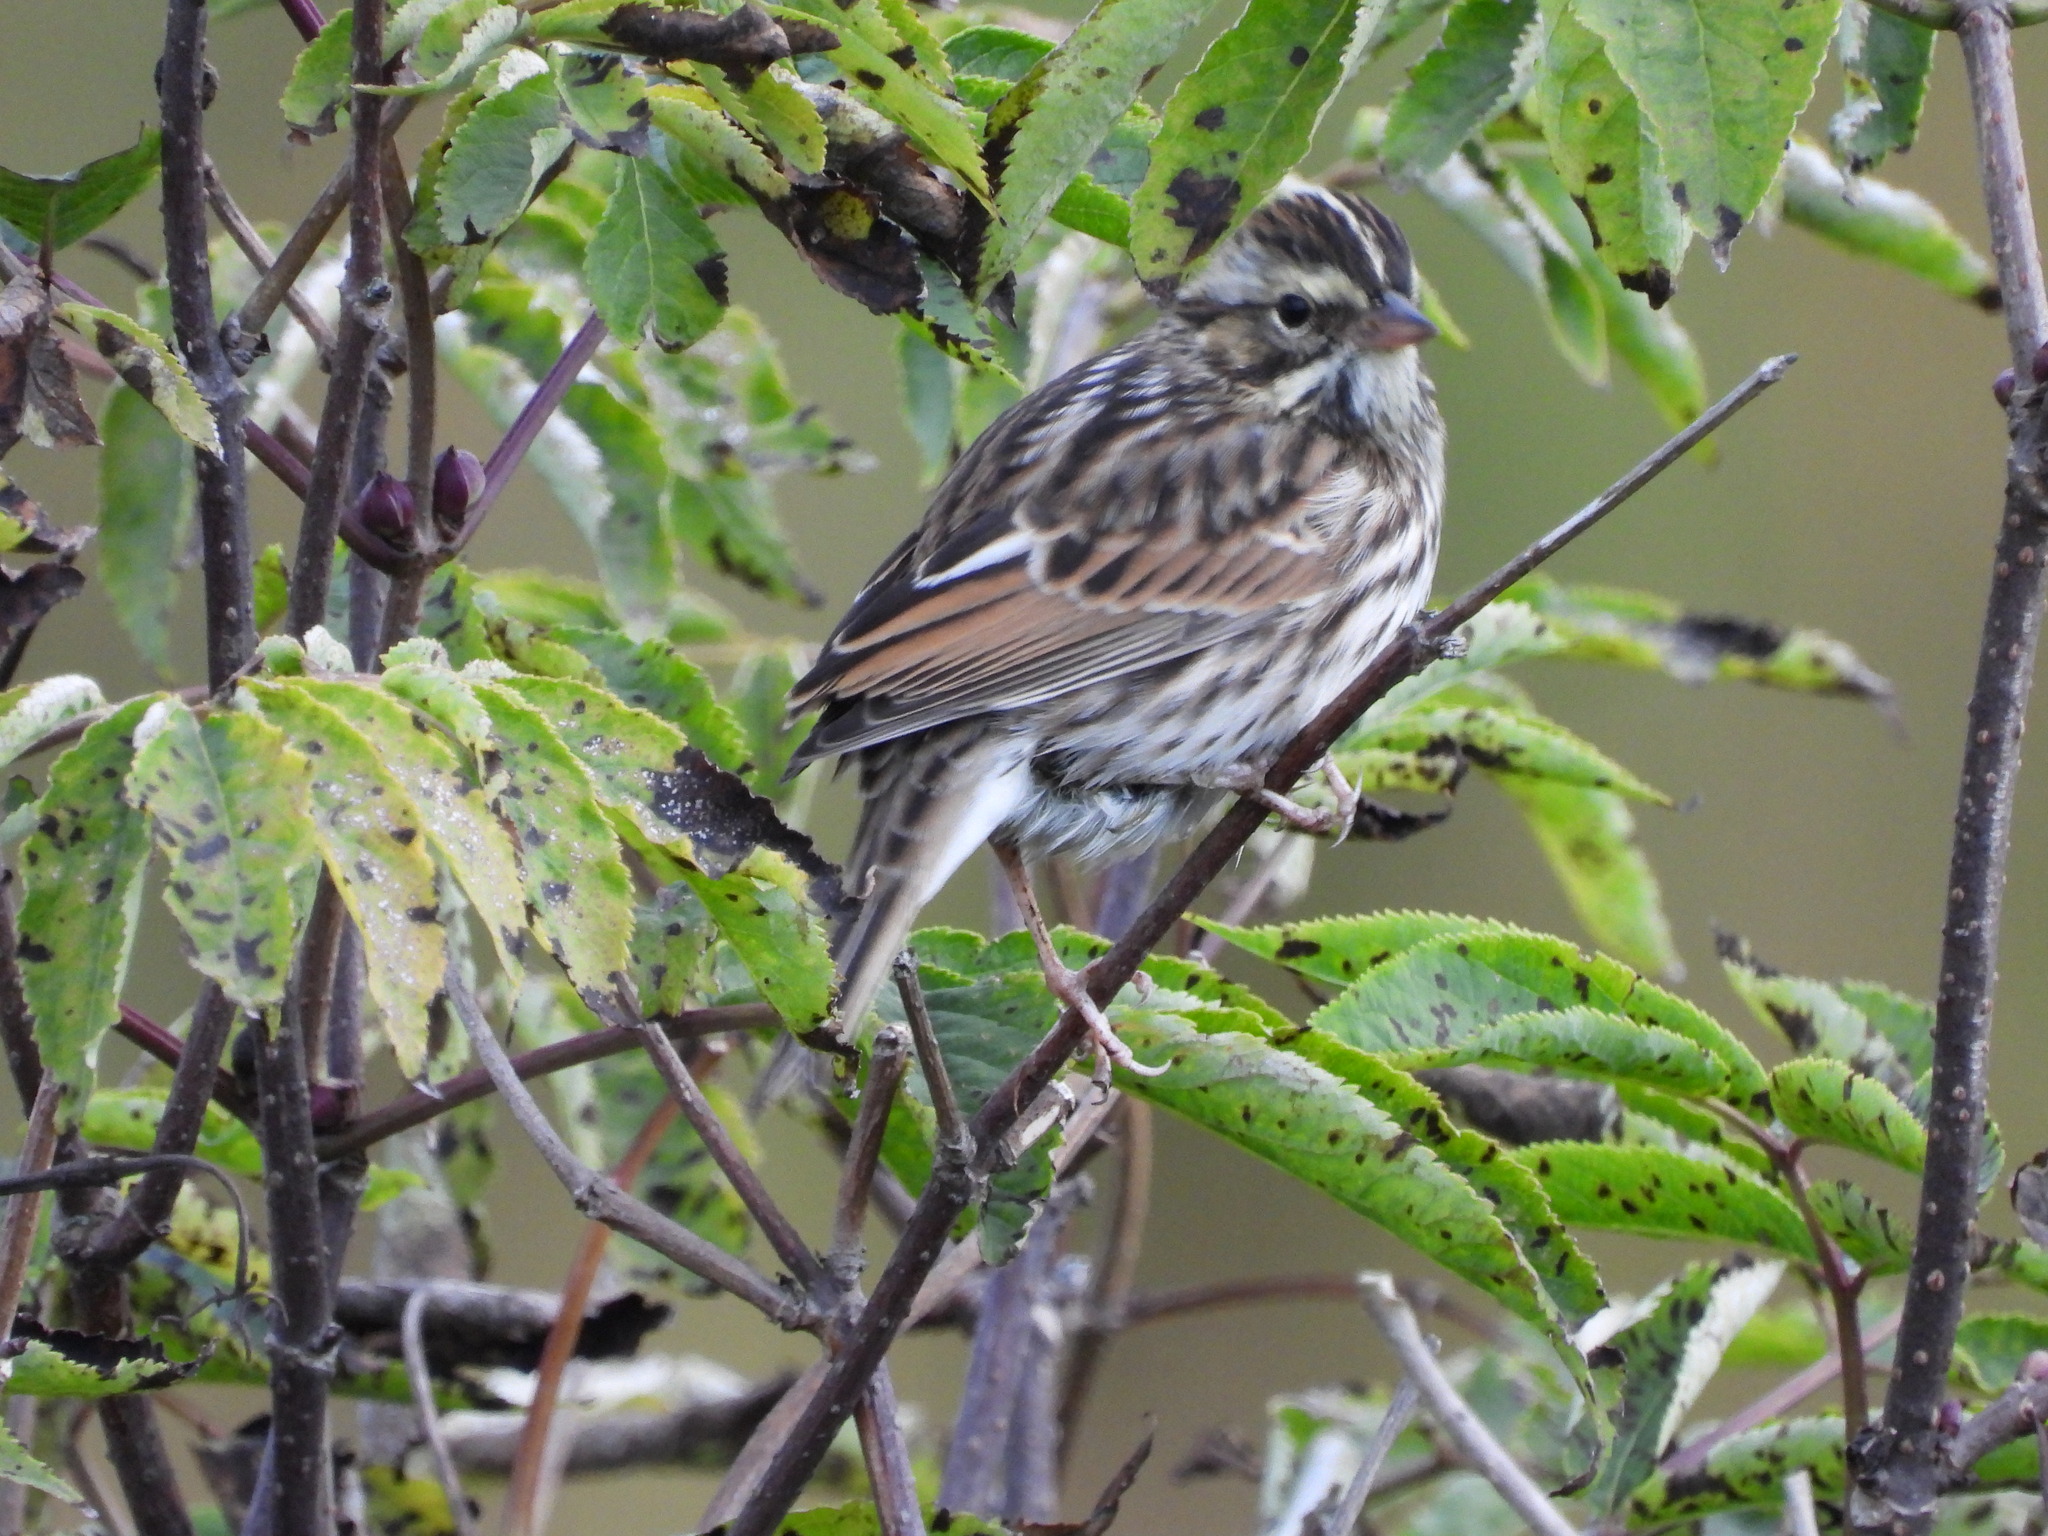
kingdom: Animalia
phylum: Chordata
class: Aves
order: Passeriformes
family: Passerellidae
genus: Passerculus
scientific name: Passerculus sandwichensis
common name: Savannah sparrow
